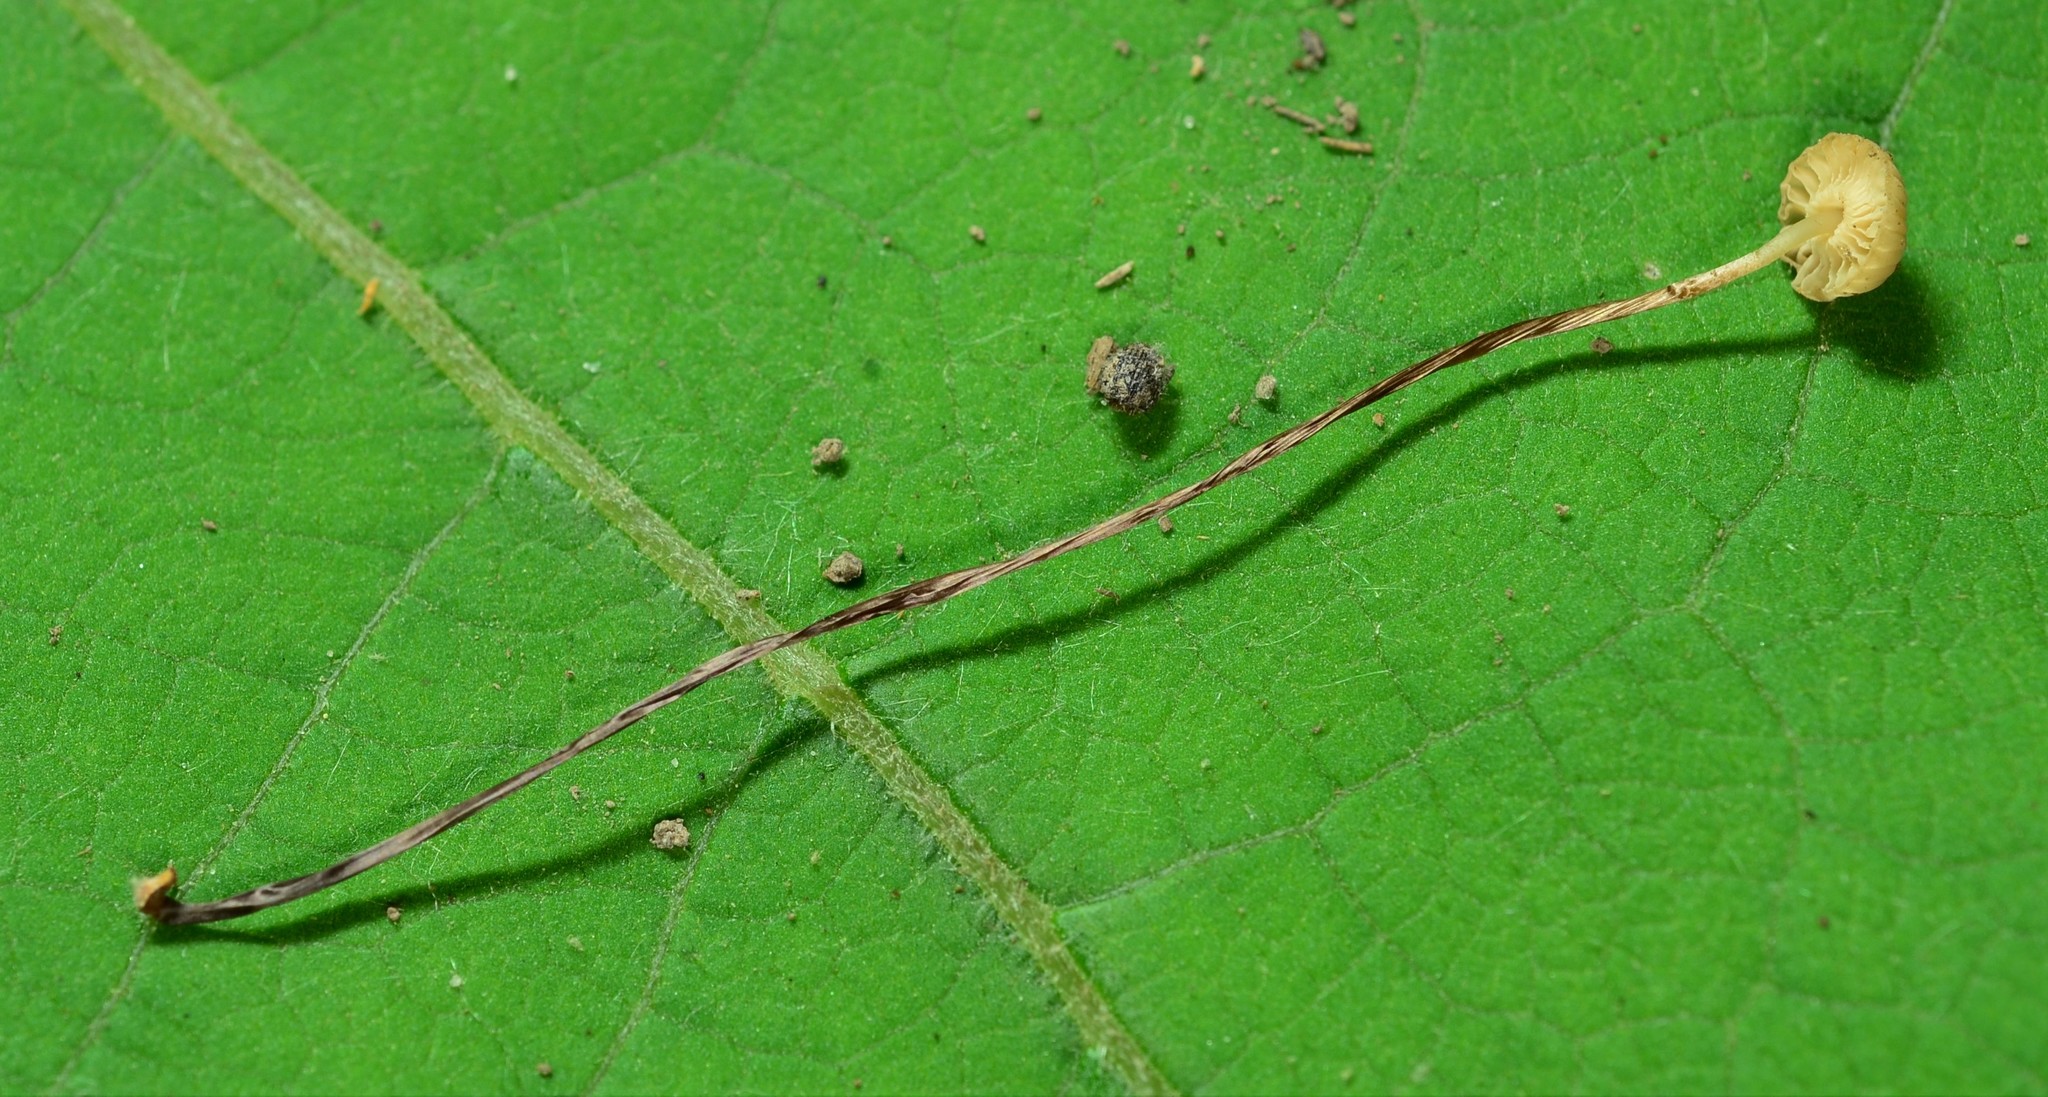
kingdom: Fungi
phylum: Basidiomycota
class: Agaricomycetes
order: Agaricales
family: Marasmiaceae
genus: Marasmius
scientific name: Marasmius rotula
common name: Collared parachute
